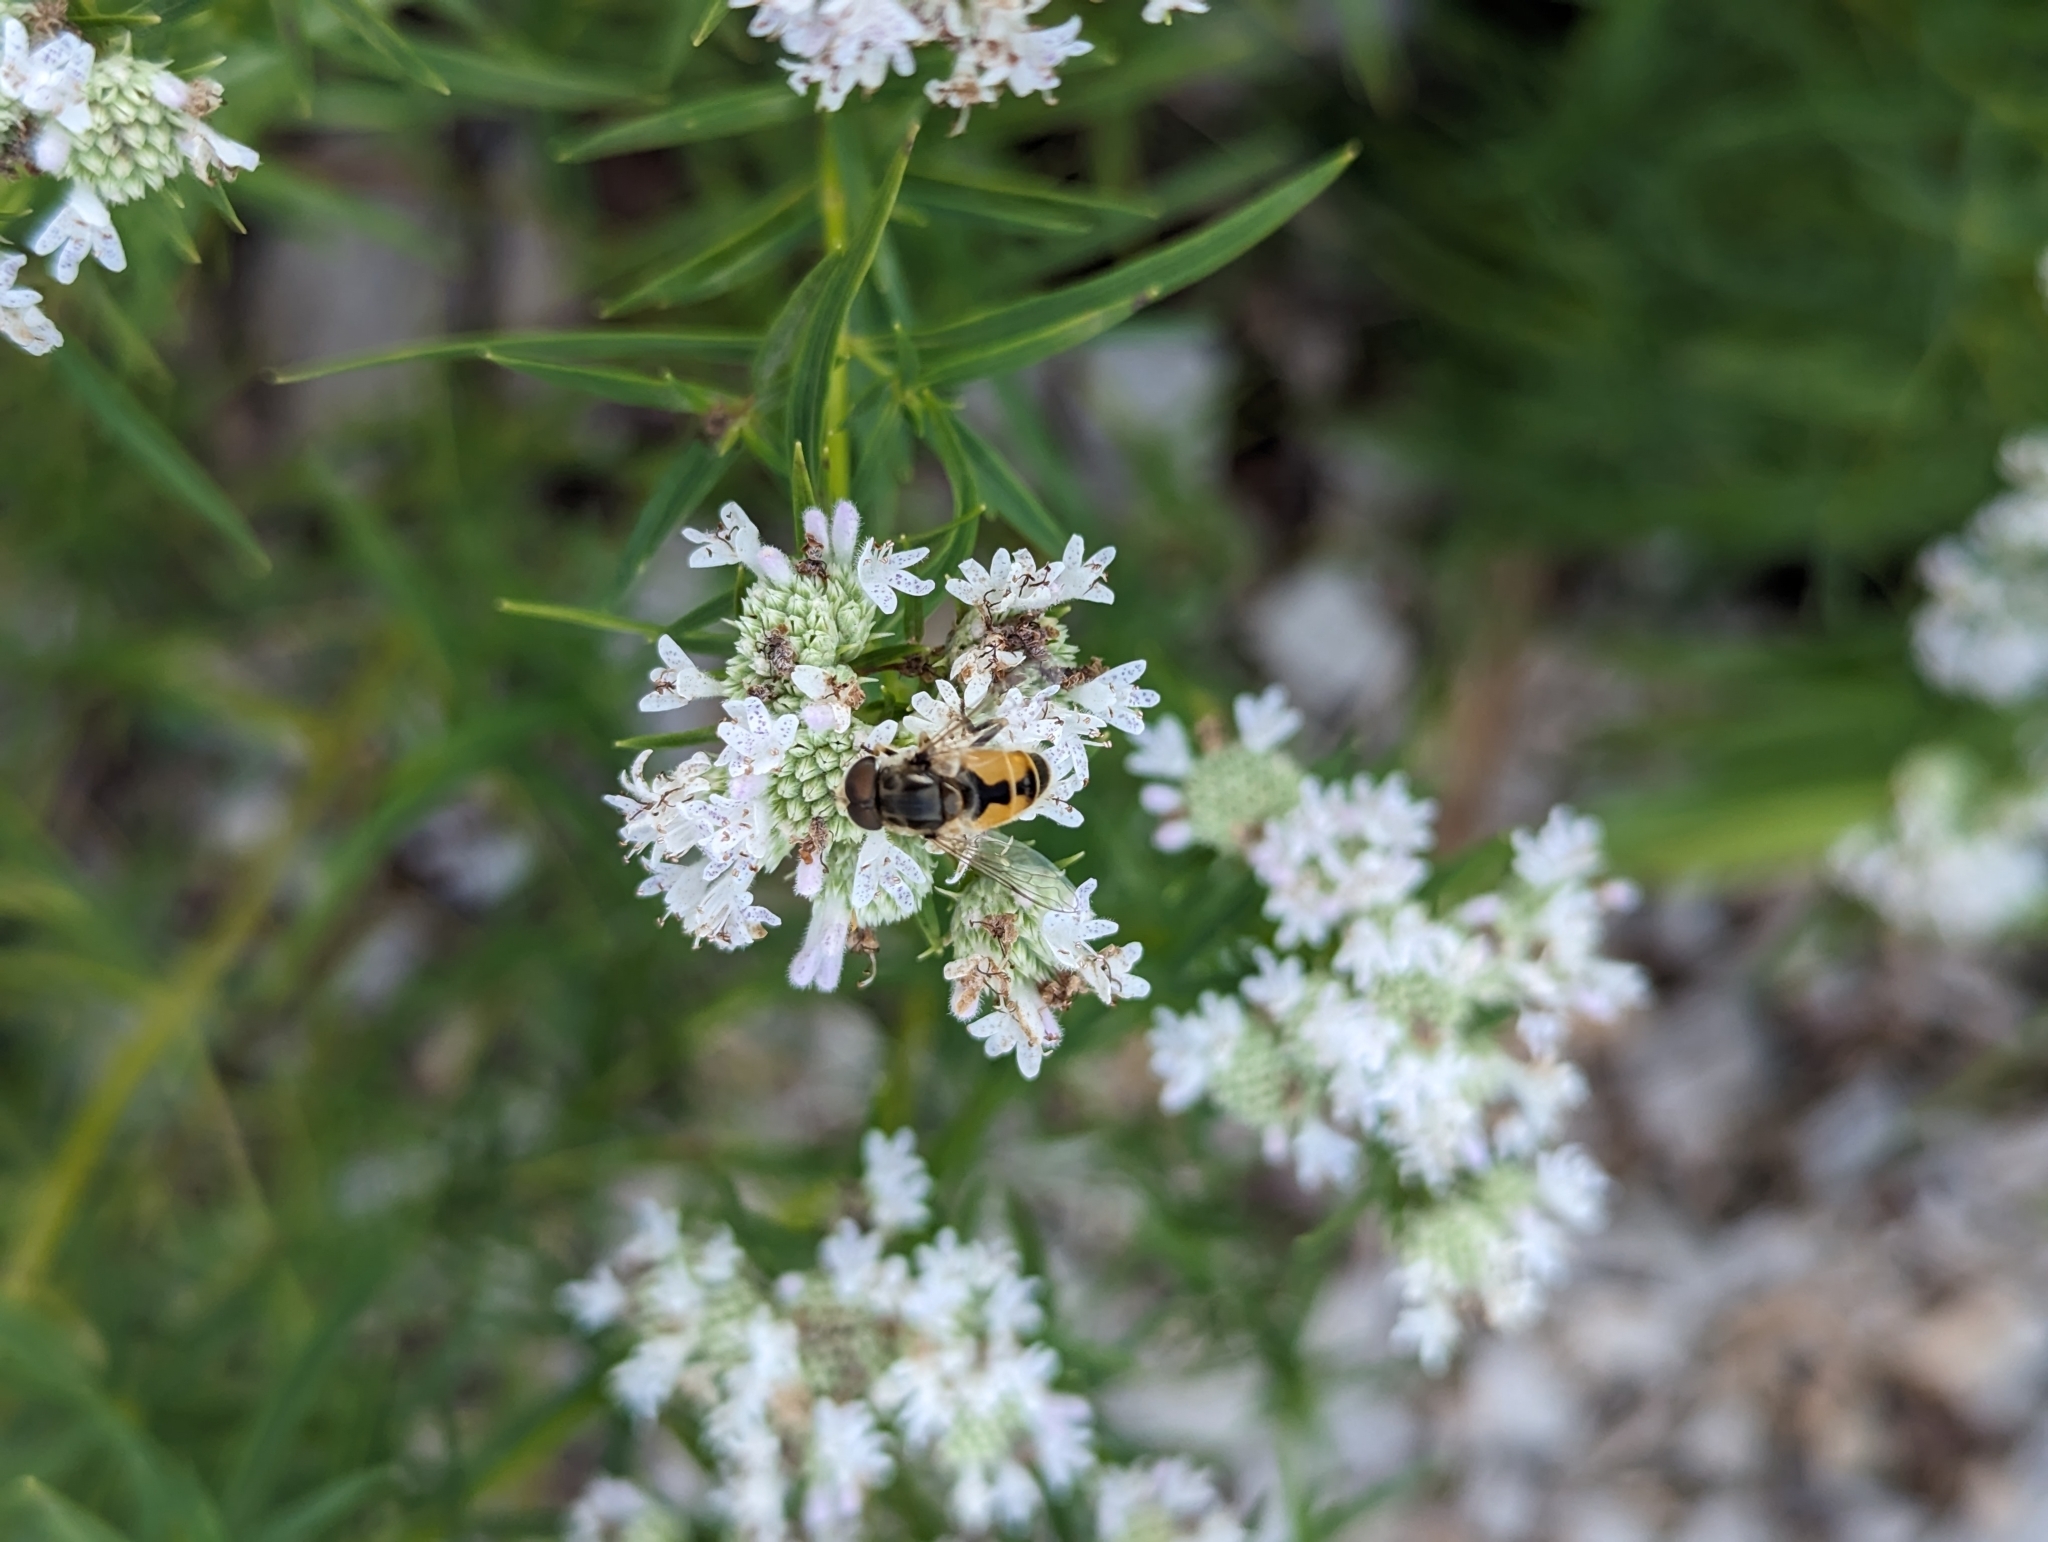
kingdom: Animalia
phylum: Arthropoda
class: Insecta
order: Diptera
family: Syrphidae
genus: Eristalis
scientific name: Eristalis arbustorum
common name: Hover fly
